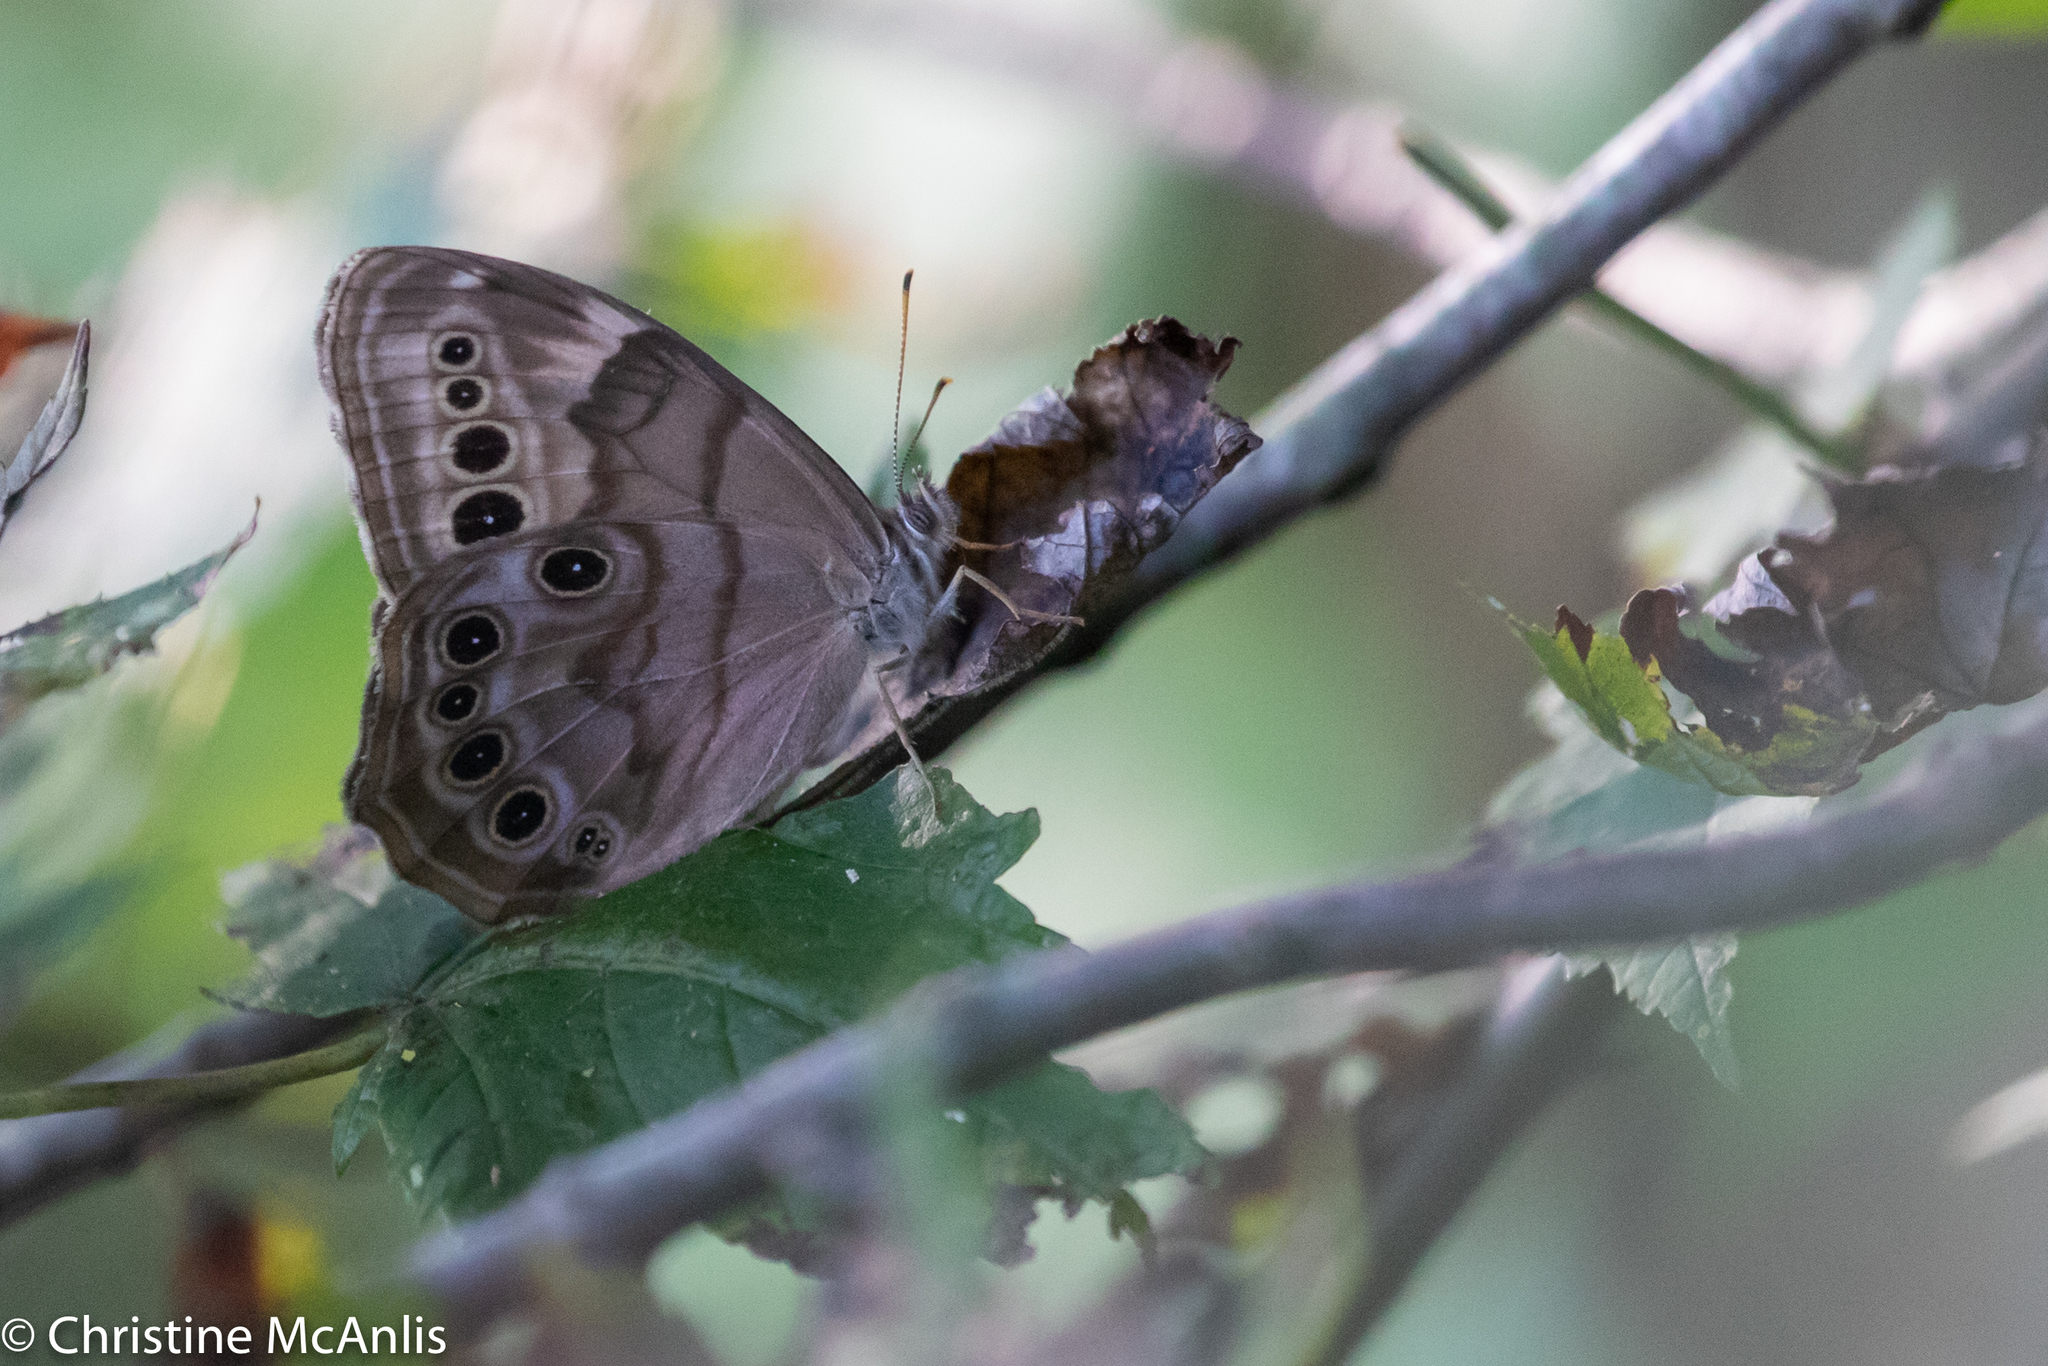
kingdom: Animalia
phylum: Arthropoda
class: Insecta
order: Lepidoptera
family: Nymphalidae
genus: Lethe
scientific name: Lethe anthedon
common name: Northern pearly-eye
